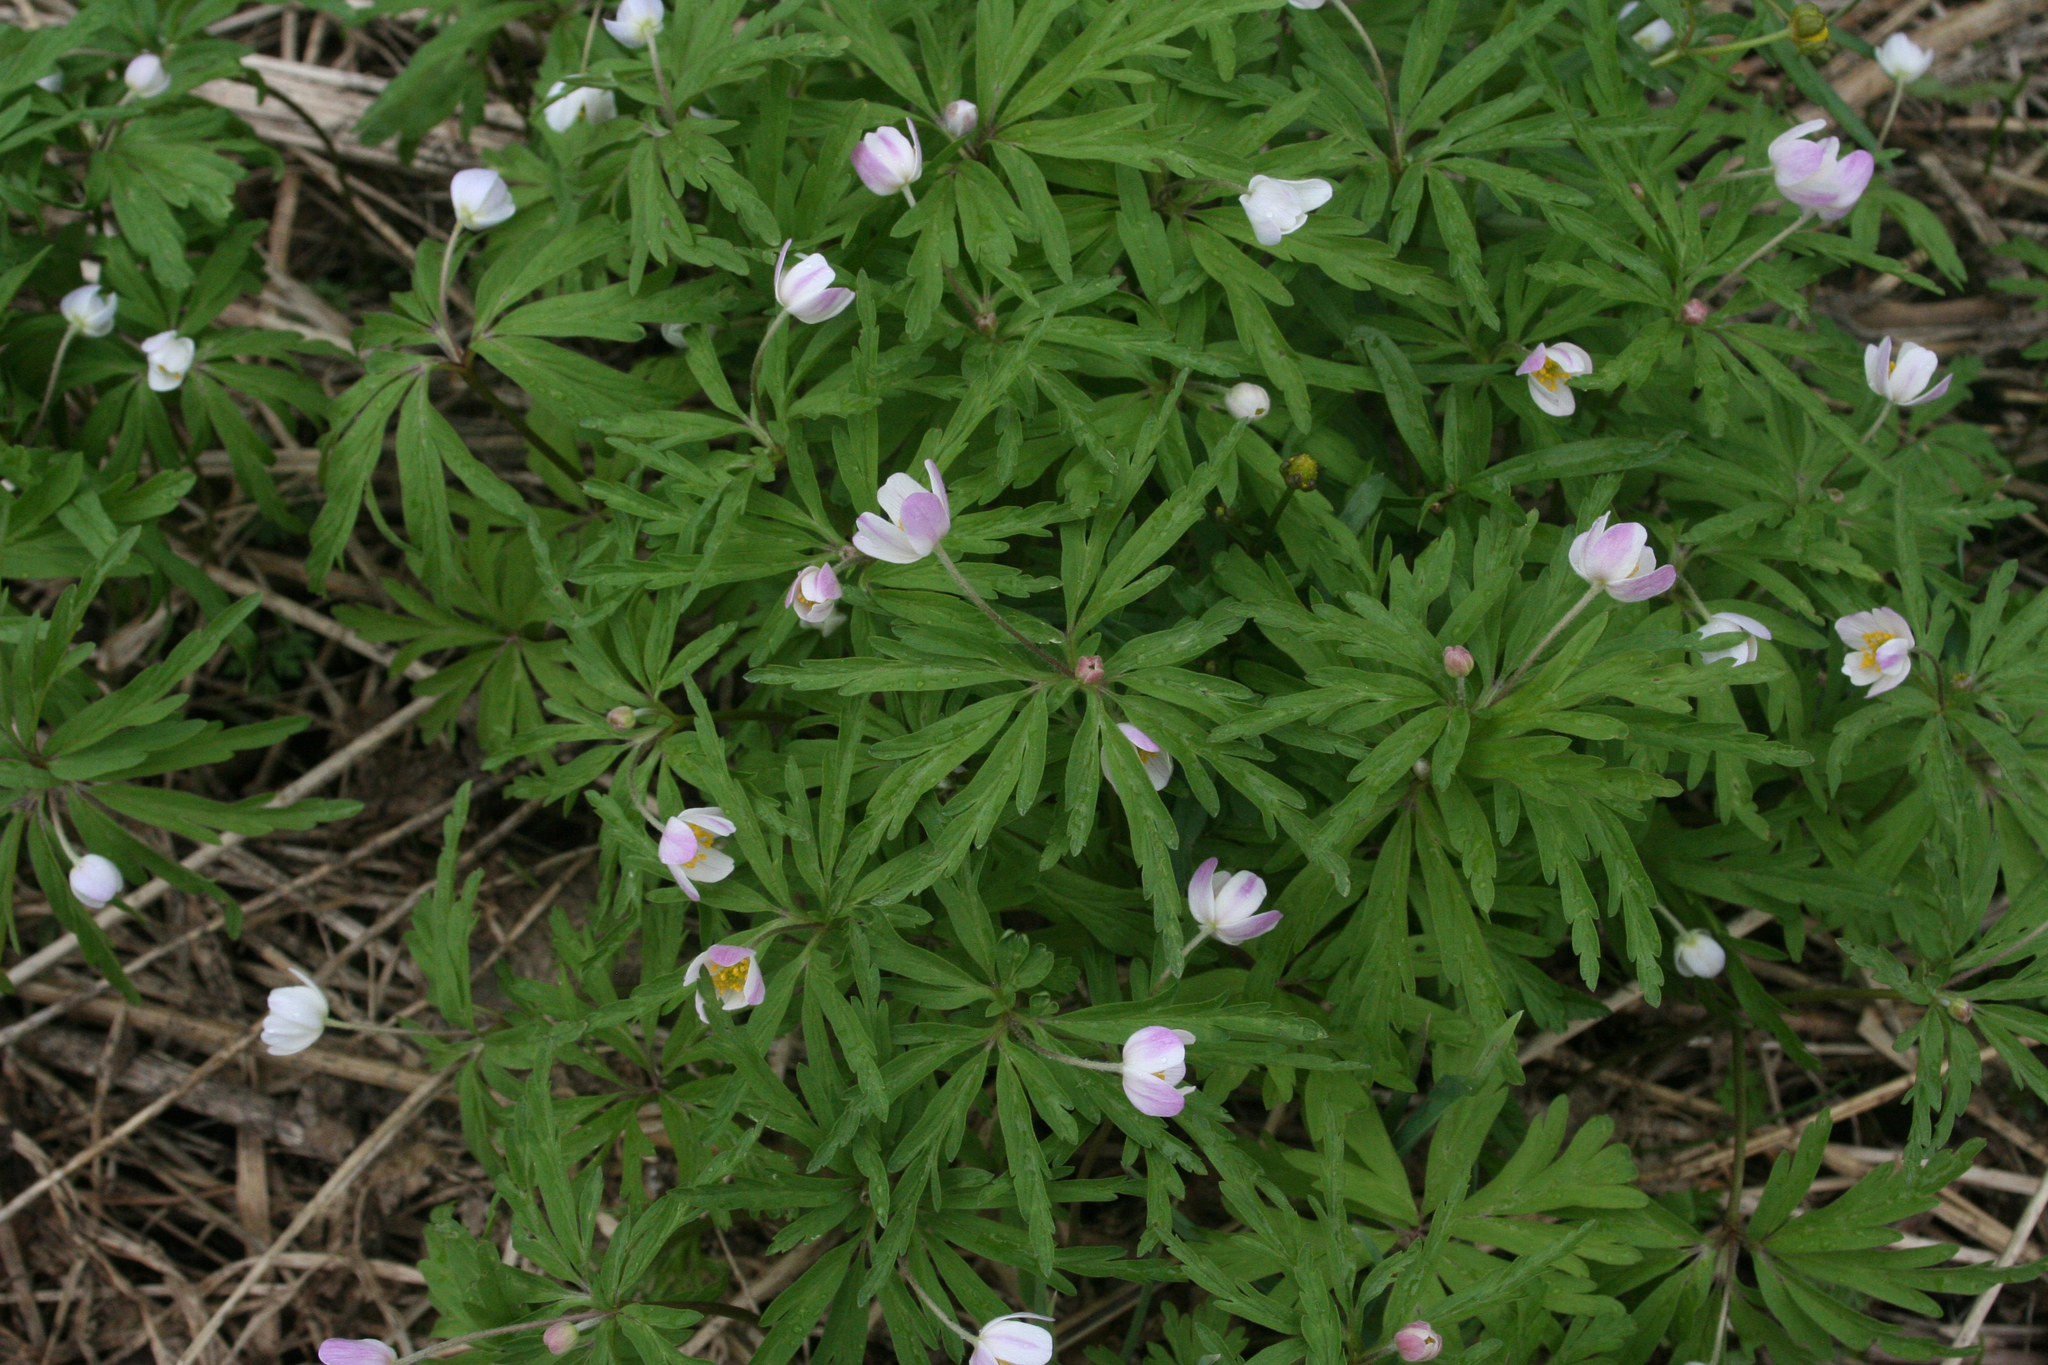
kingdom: Plantae
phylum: Tracheophyta
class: Magnoliopsida
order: Ranunculales
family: Ranunculaceae
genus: Anemone
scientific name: Anemone caerulea
